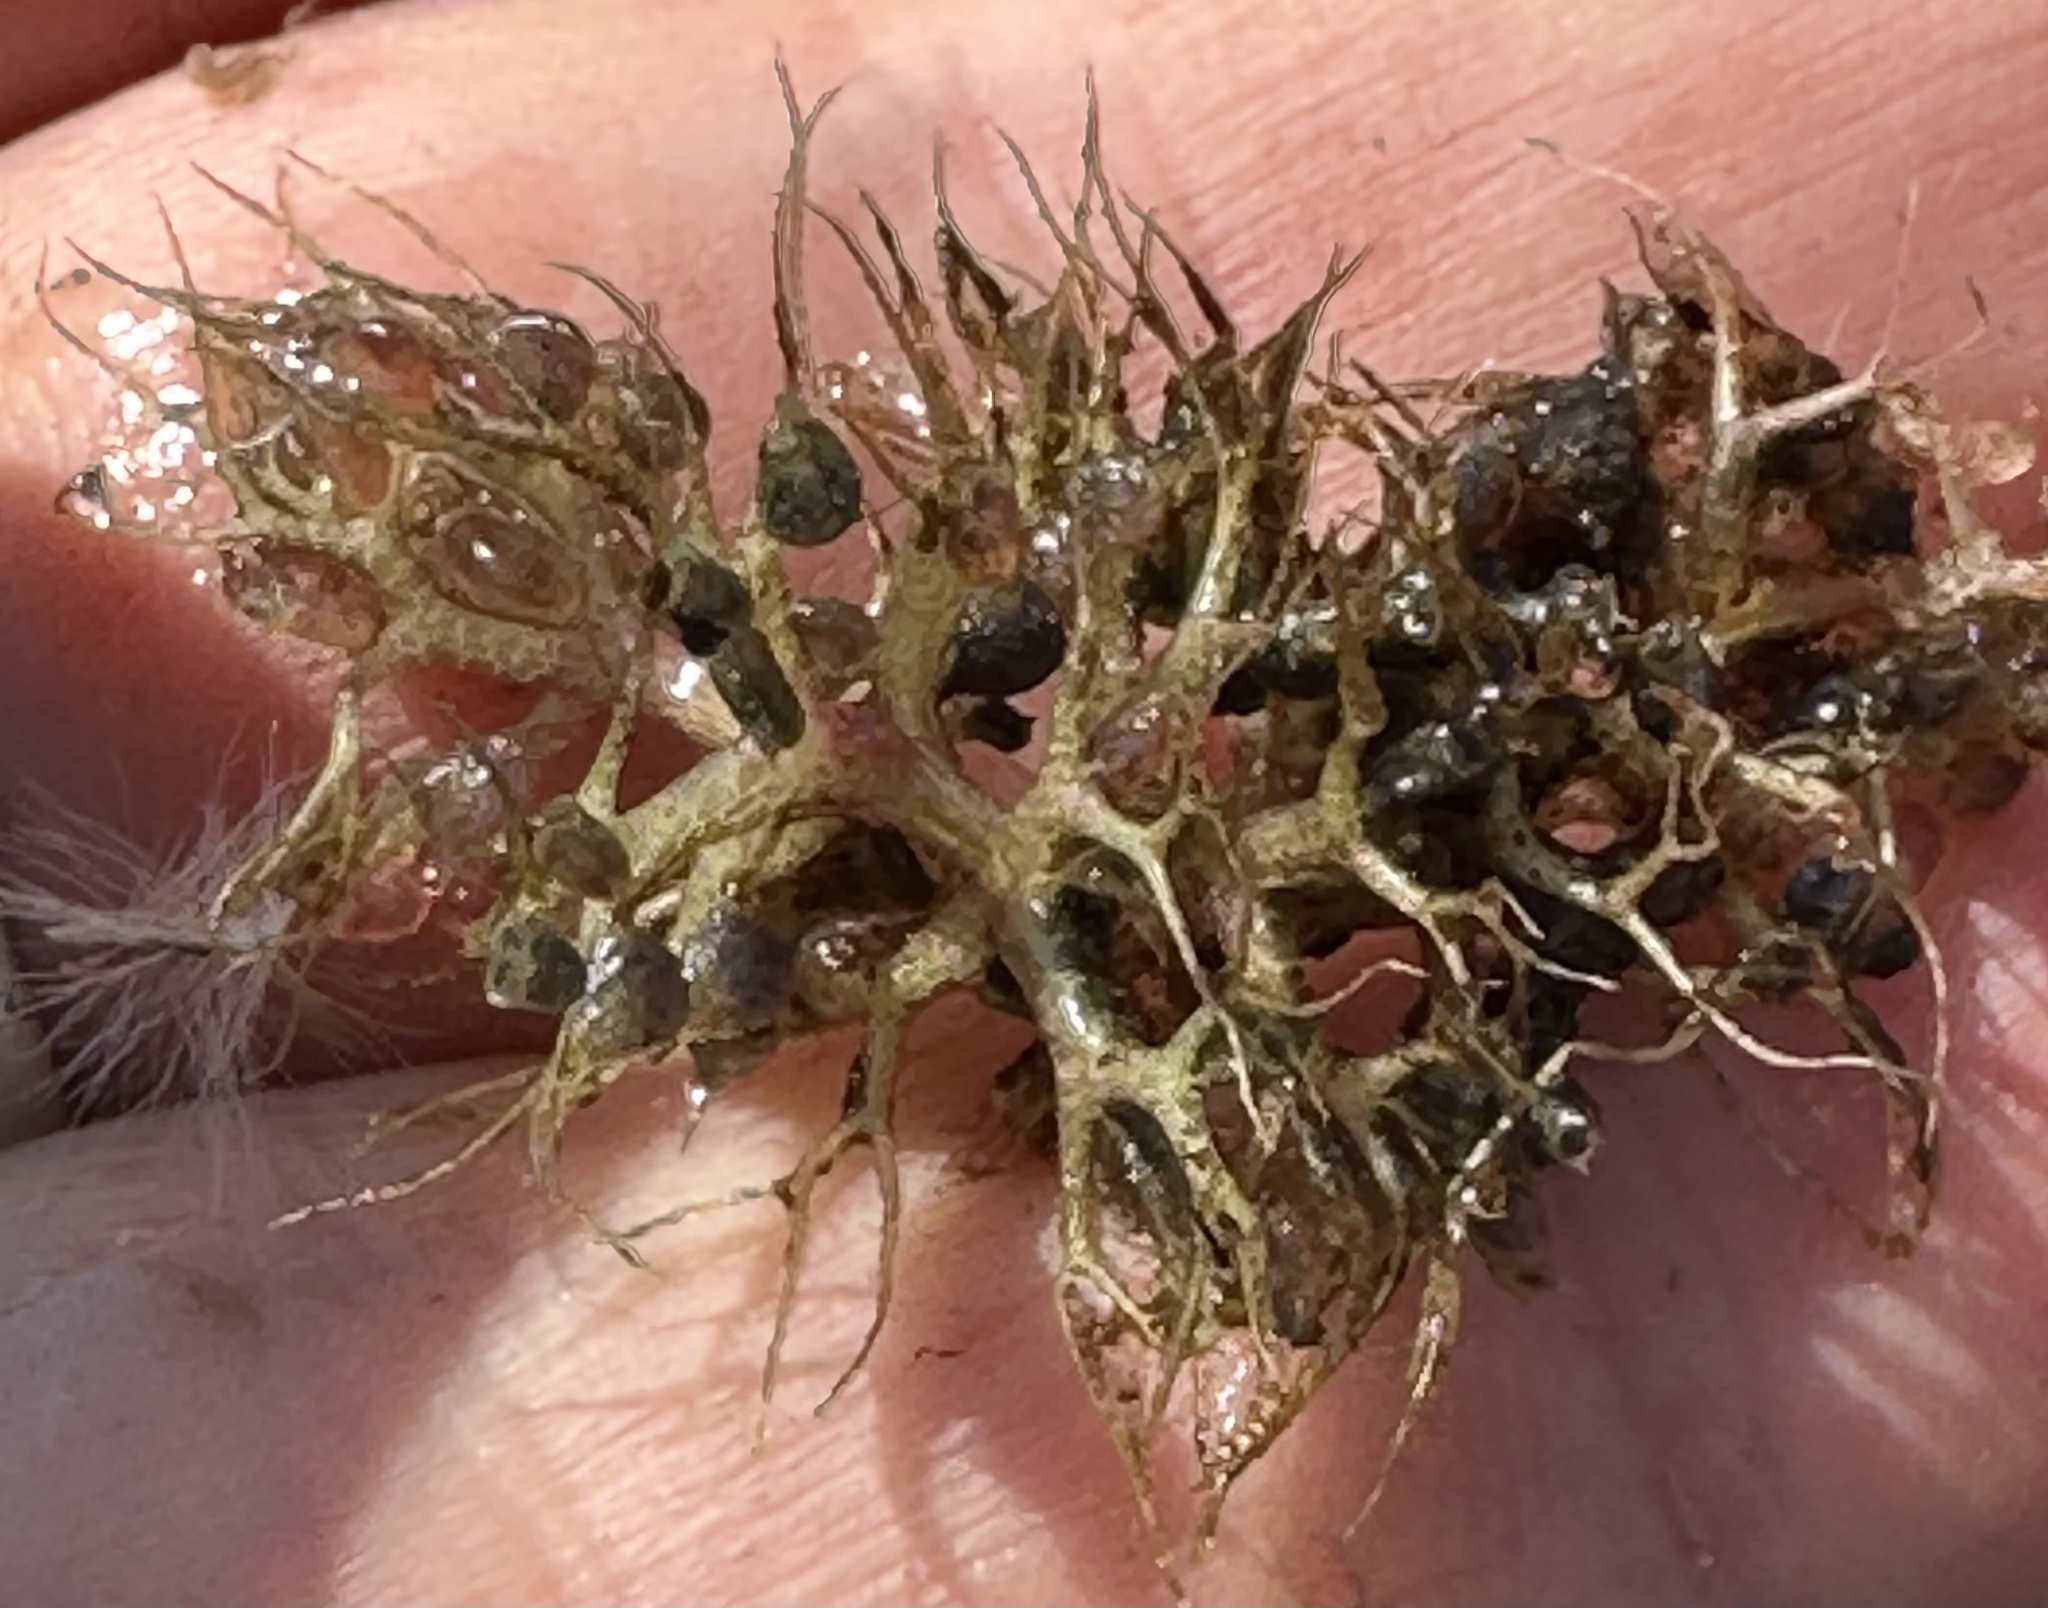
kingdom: Plantae
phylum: Tracheophyta
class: Magnoliopsida
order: Lamiales
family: Lentibulariaceae
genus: Utricularia
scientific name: Utricularia raynalii
